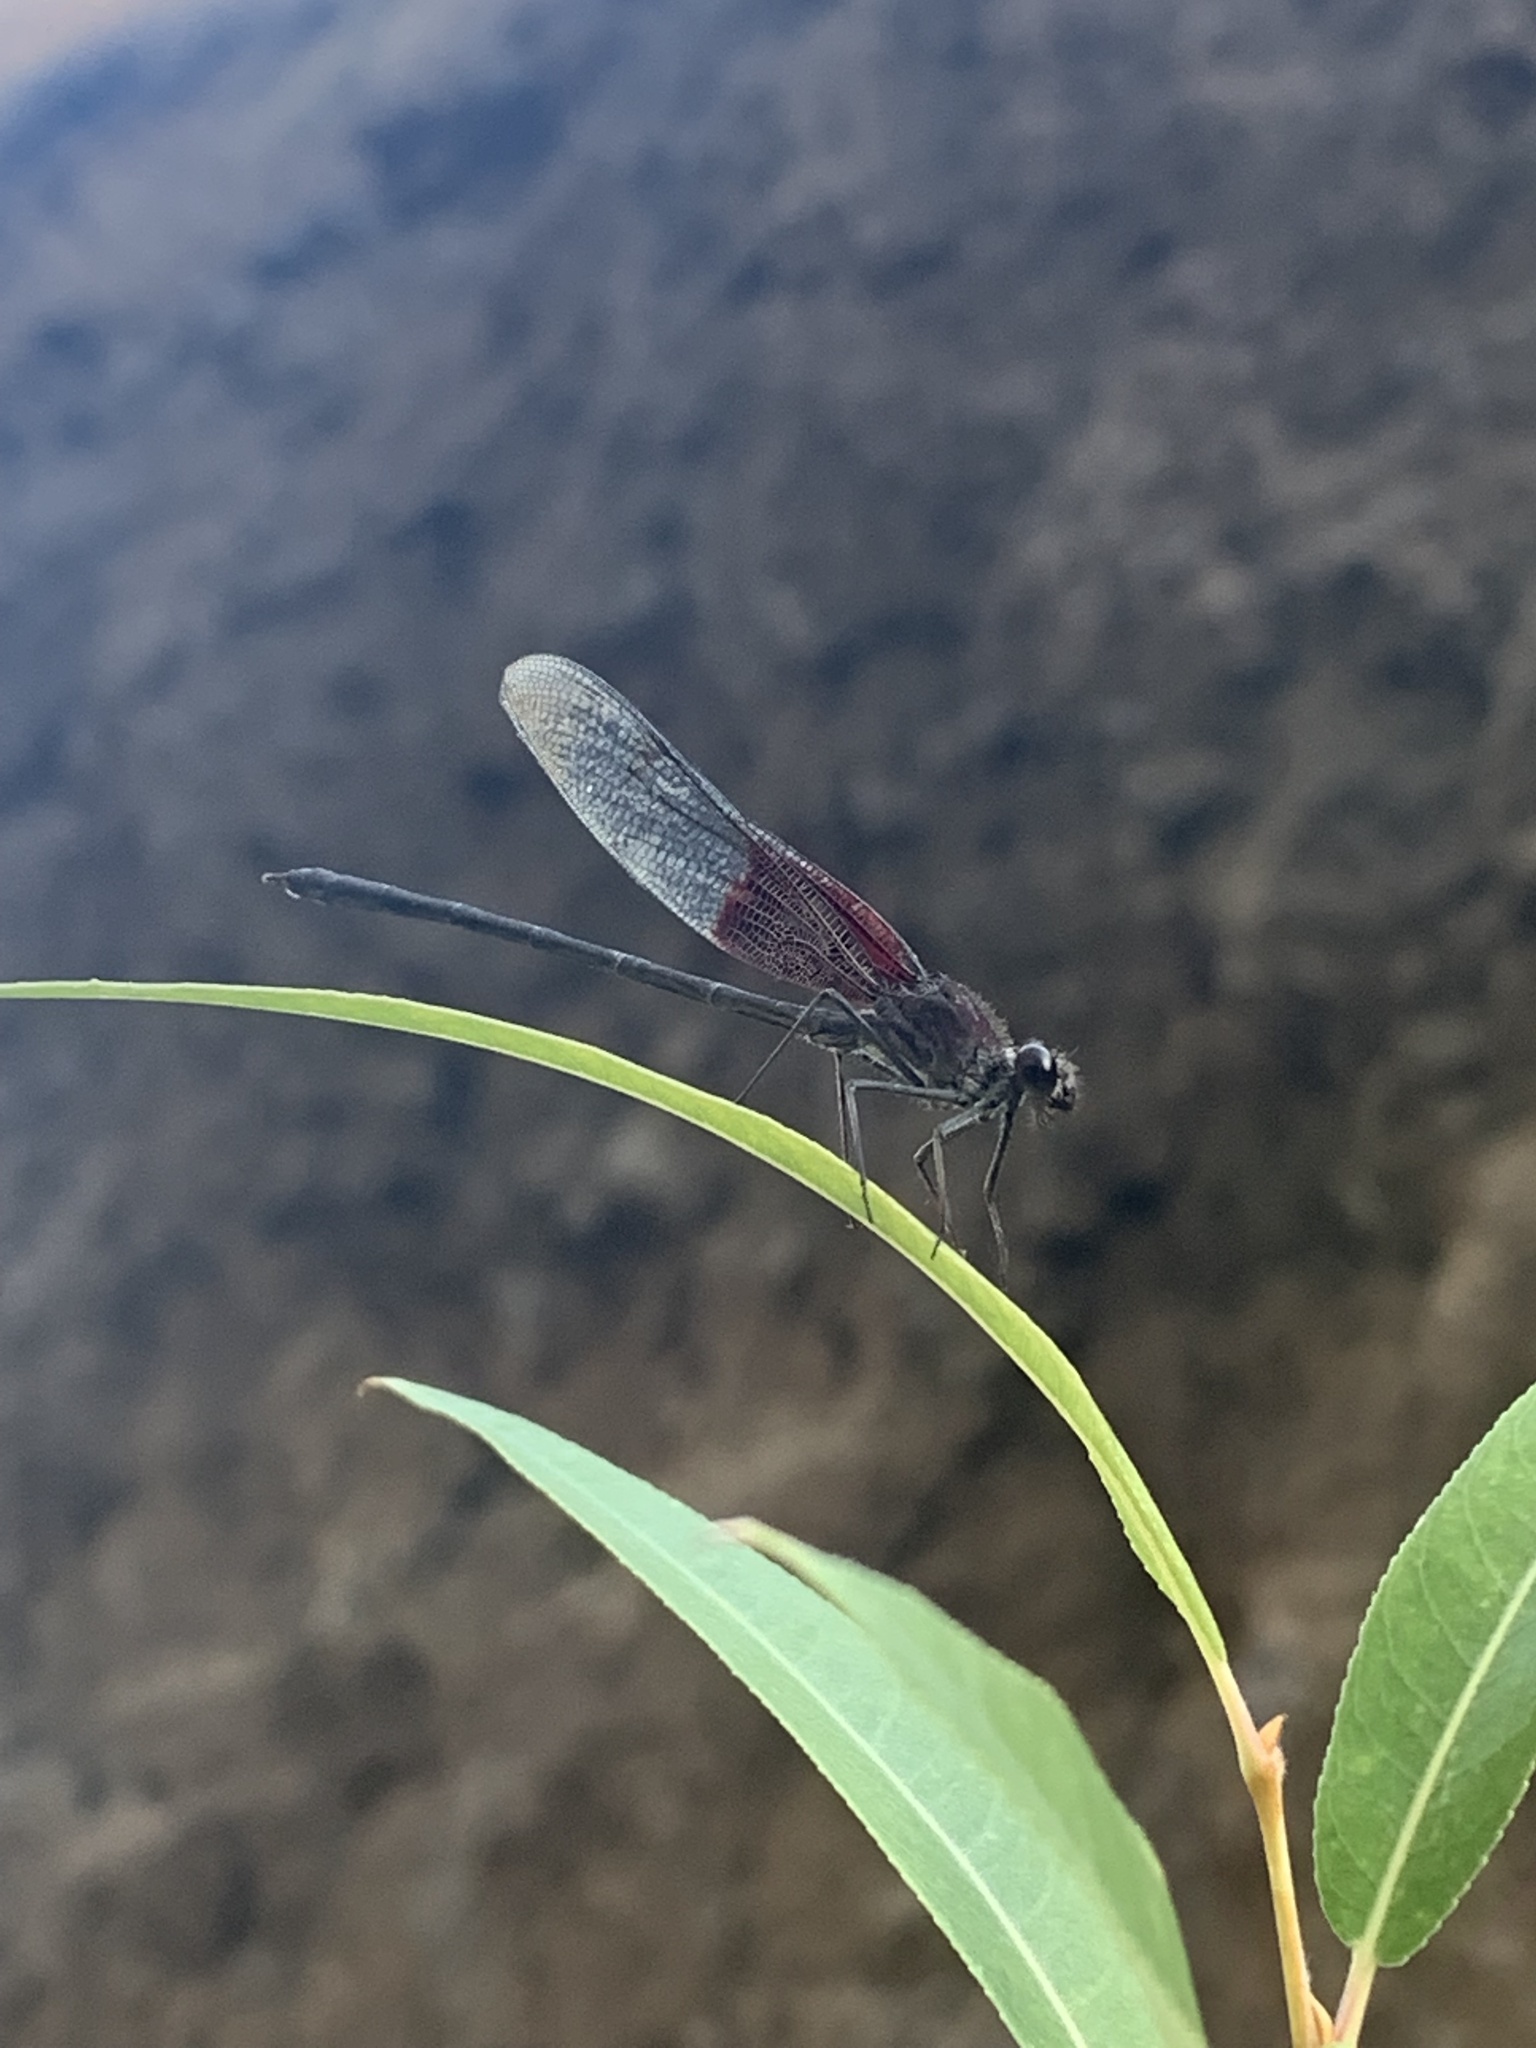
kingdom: Animalia
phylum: Arthropoda
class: Insecta
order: Odonata
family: Calopterygidae
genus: Hetaerina
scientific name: Hetaerina americana
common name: American rubyspot
